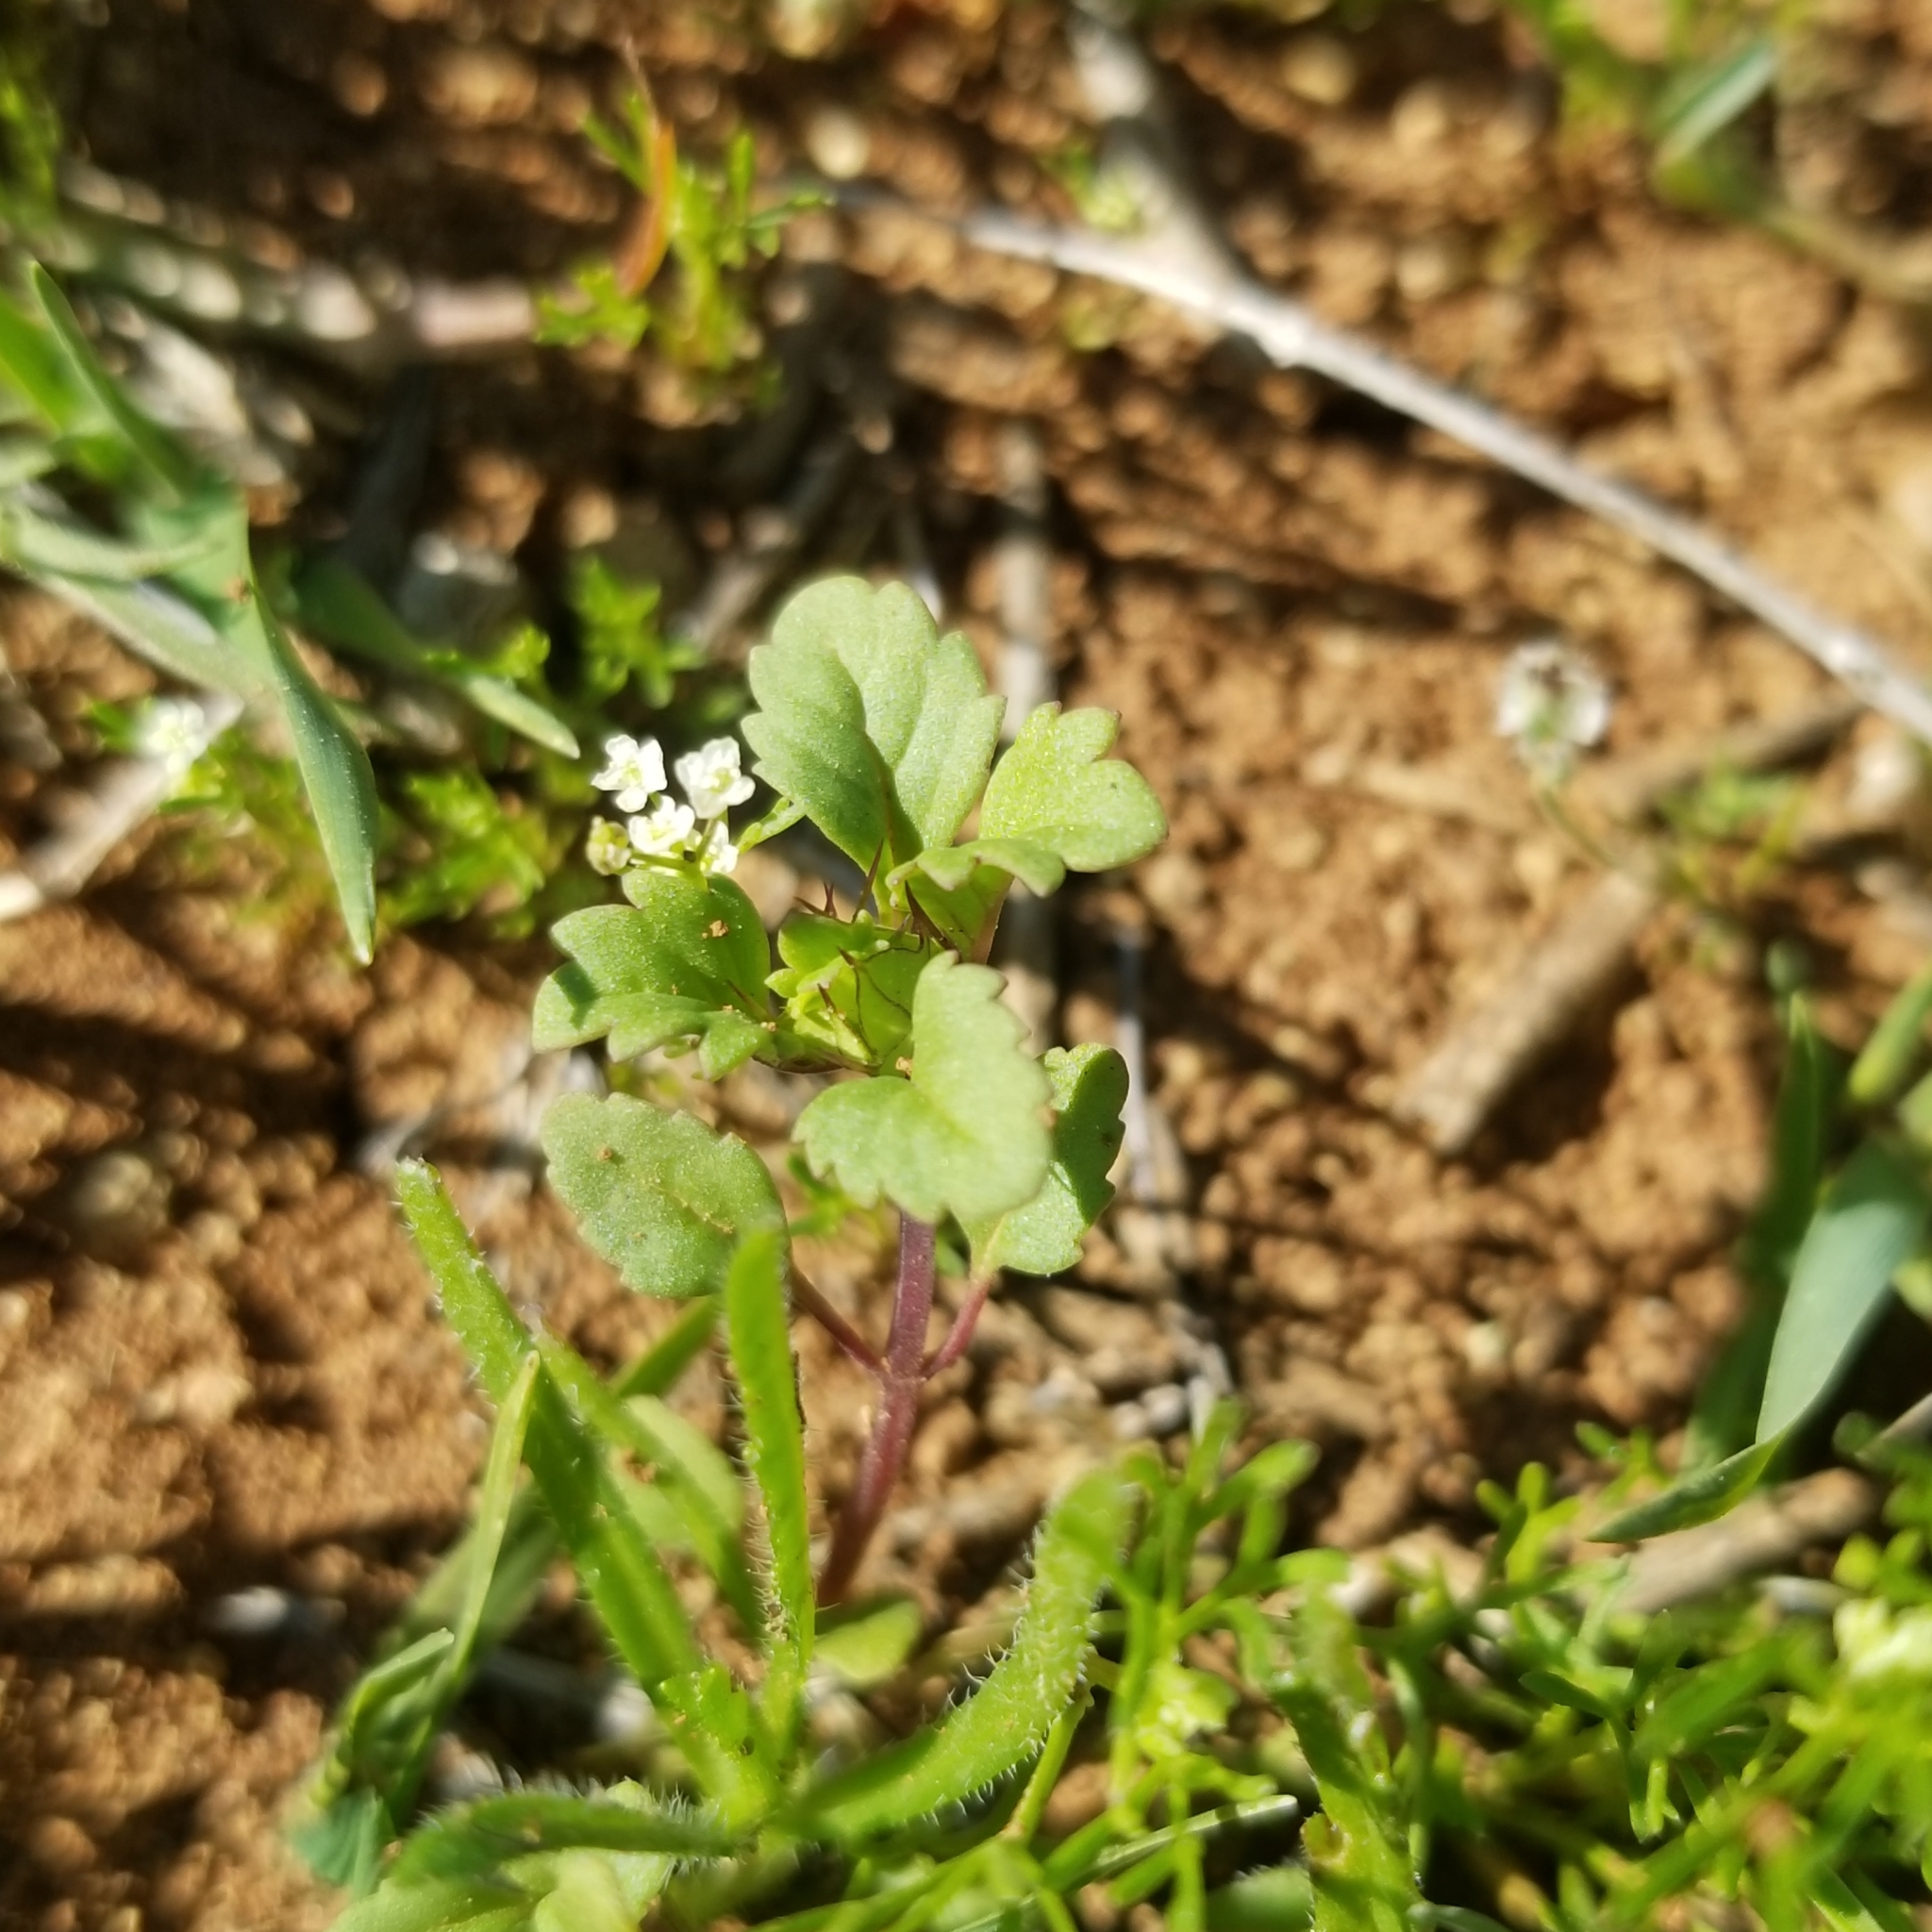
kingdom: Plantae
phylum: Tracheophyta
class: Magnoliopsida
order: Lamiales
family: Lamiaceae
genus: Acanthomintha
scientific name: Acanthomintha ilicifolia
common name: San diego thorn-mint
